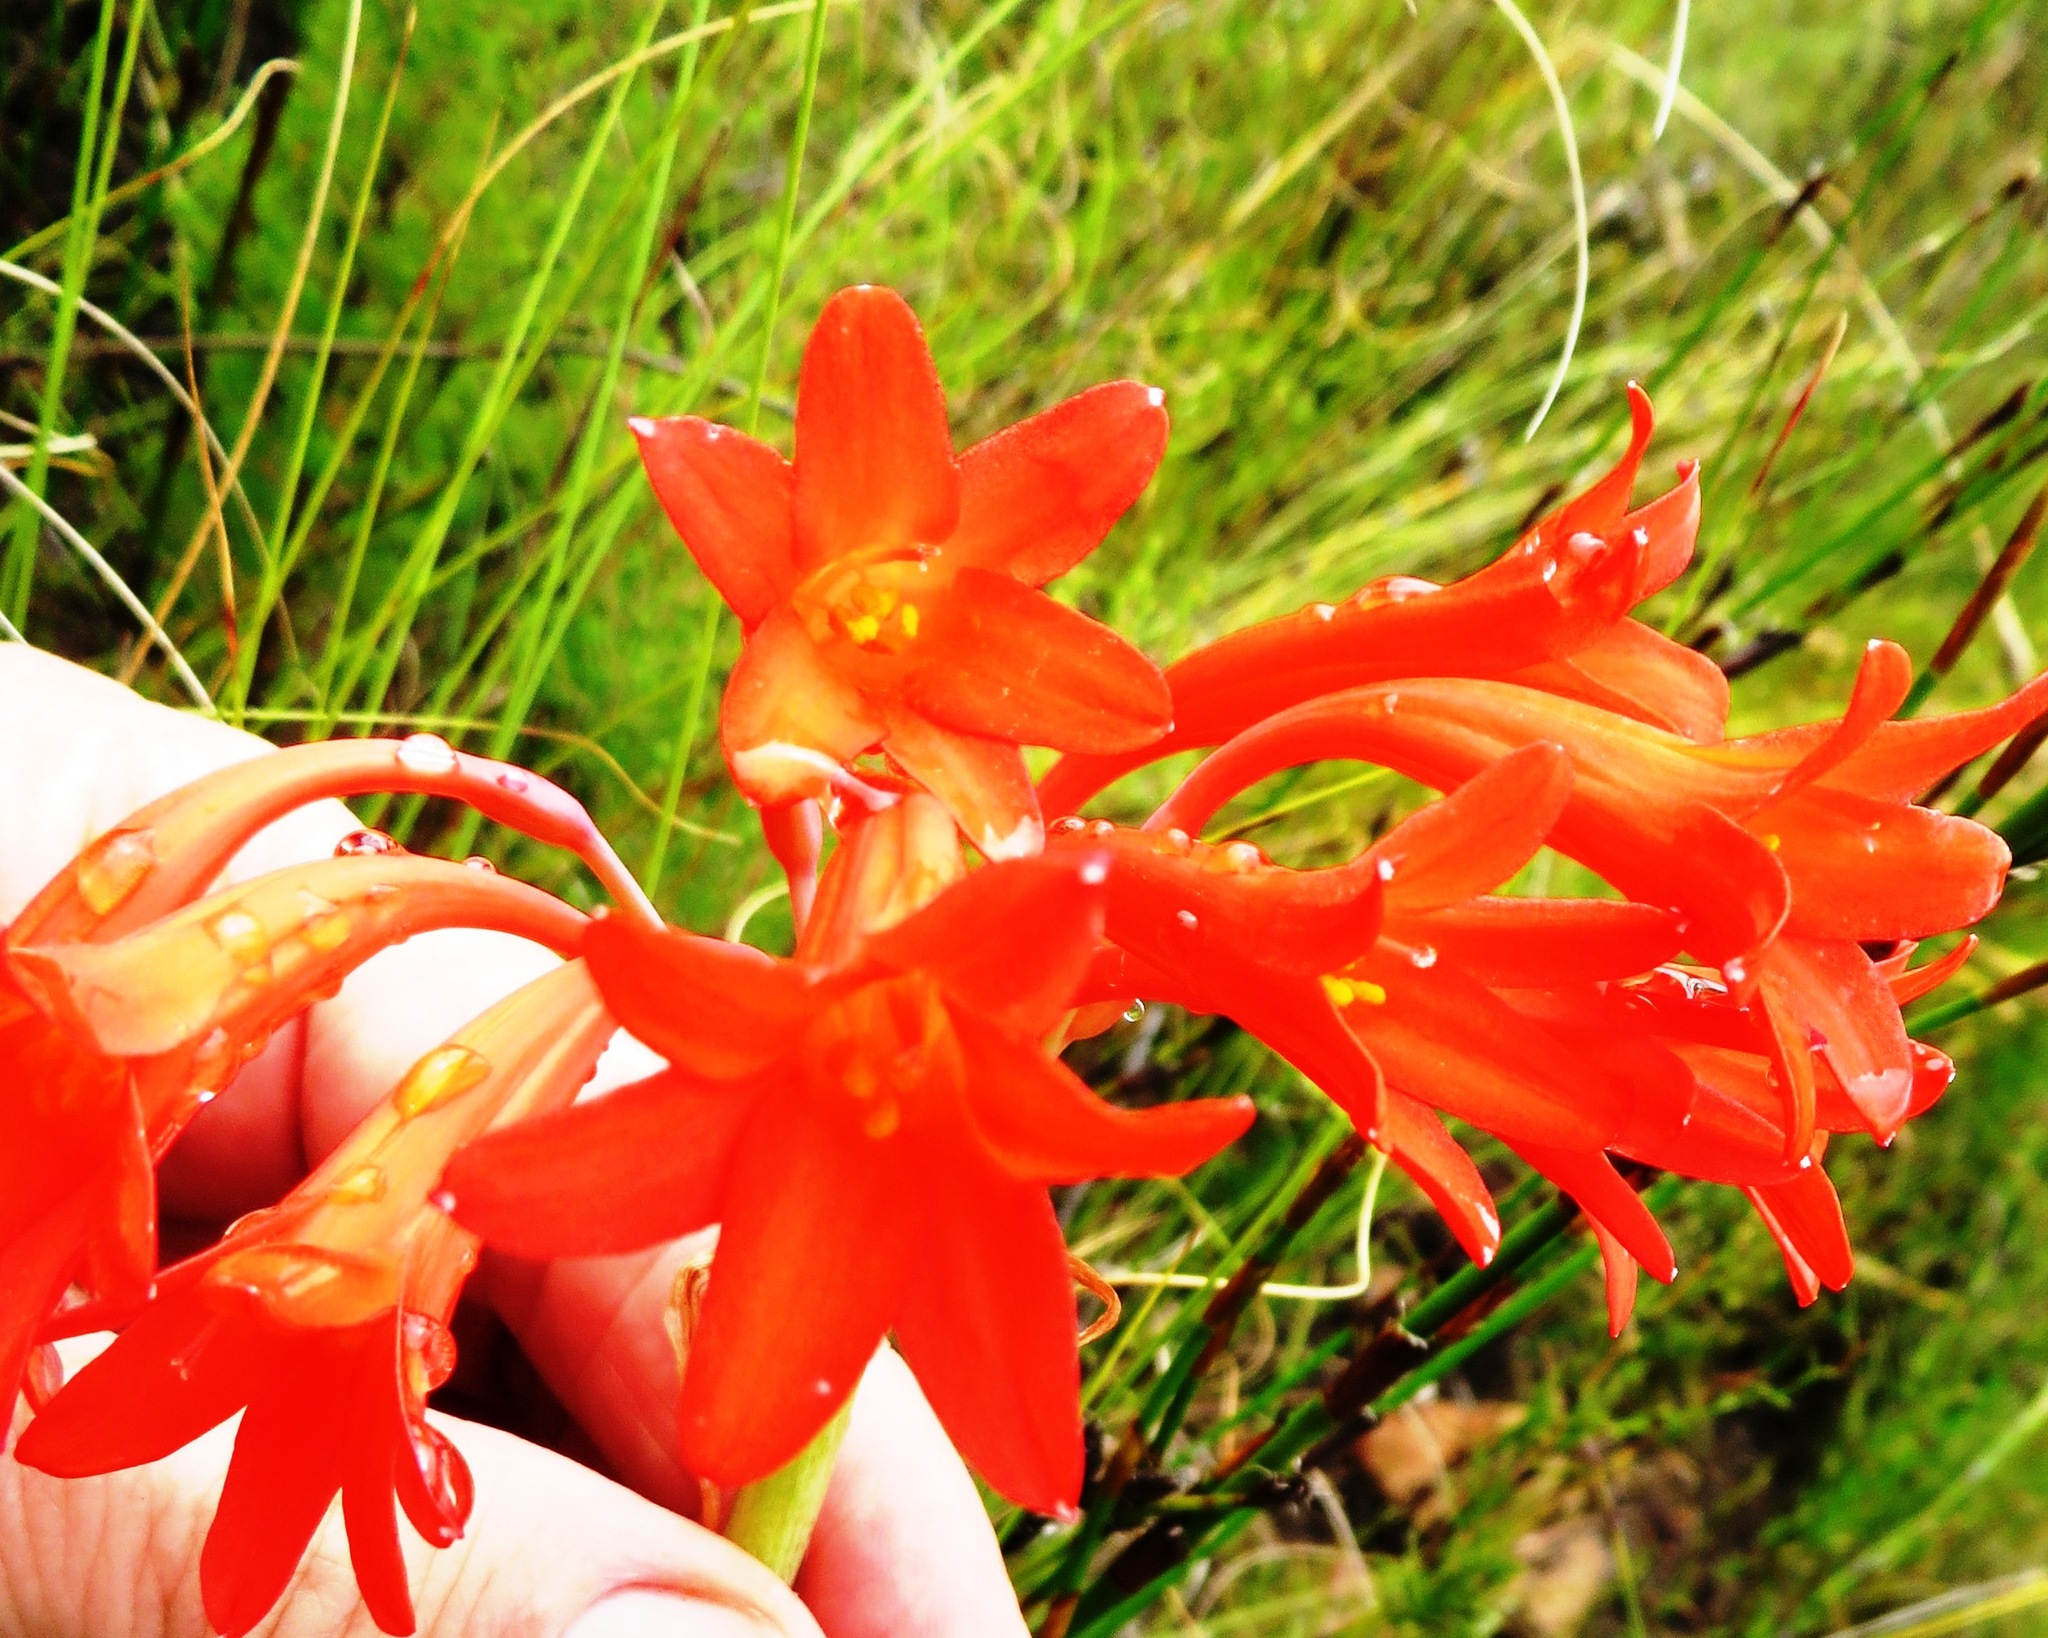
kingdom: Plantae
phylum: Tracheophyta
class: Liliopsida
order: Asparagales
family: Amaryllidaceae
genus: Cyrtanthus
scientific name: Cyrtanthus collinus
